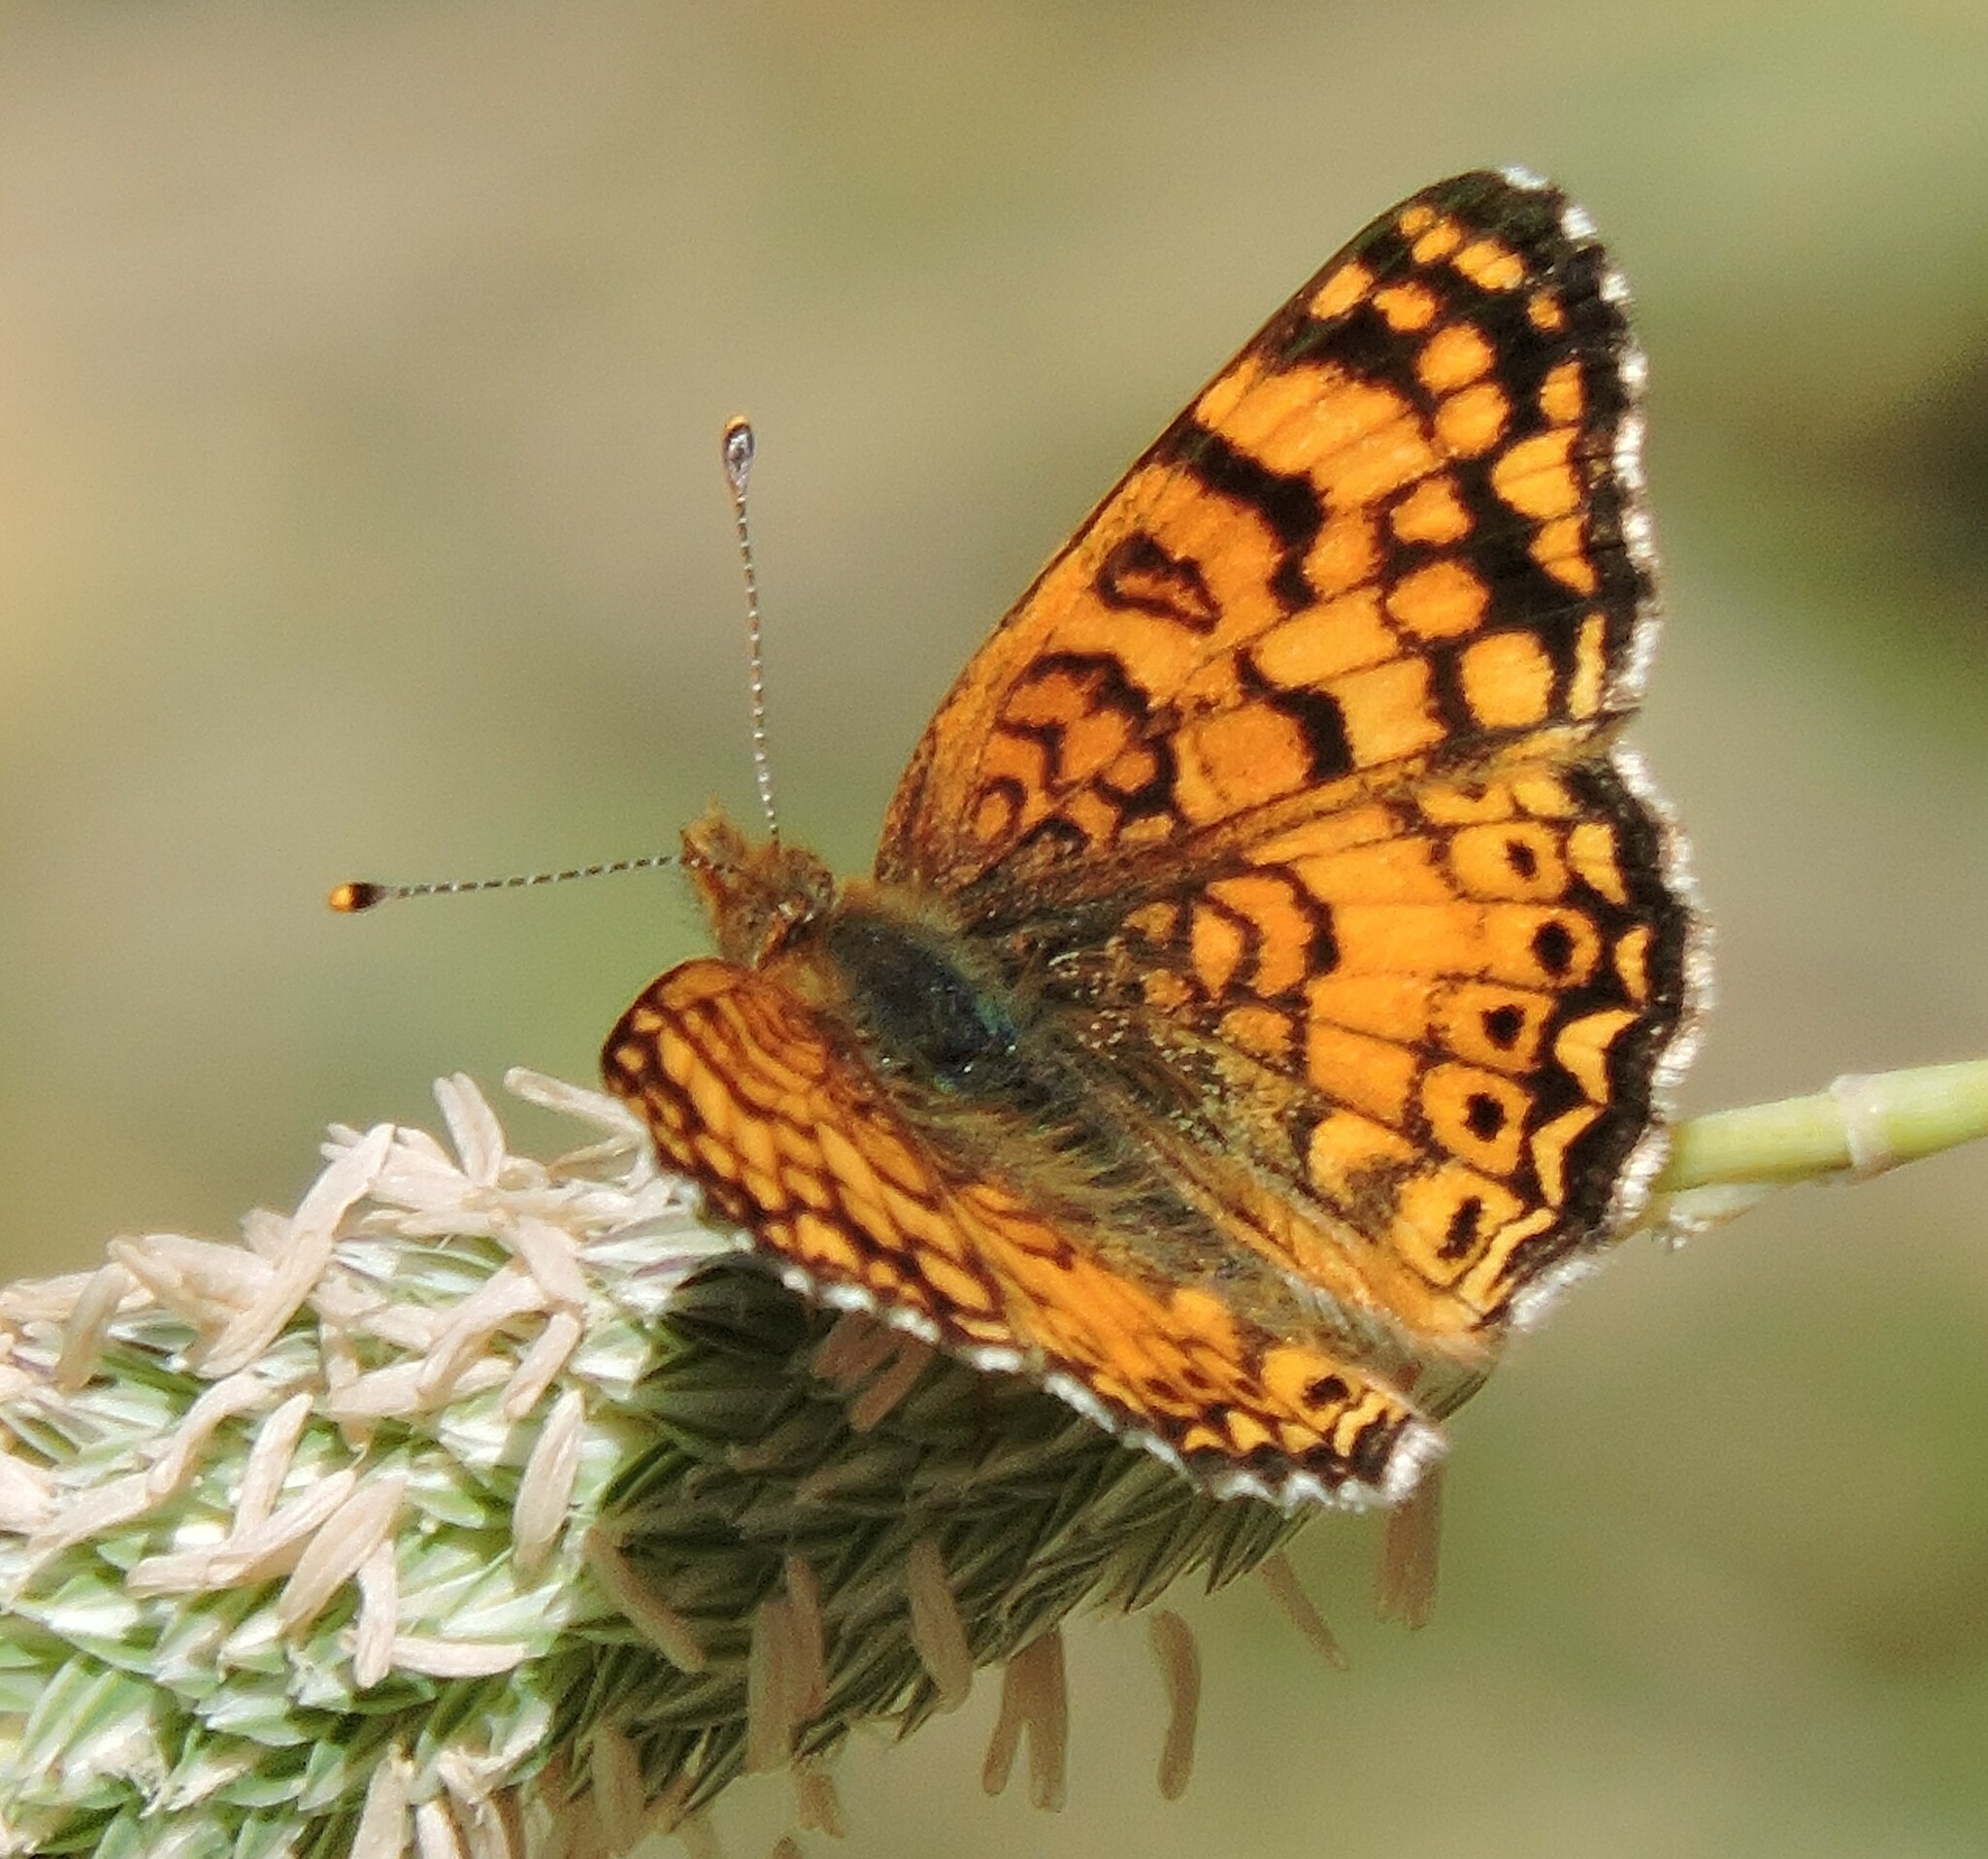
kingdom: Animalia
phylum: Arthropoda
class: Insecta
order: Lepidoptera
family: Nymphalidae
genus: Eresia
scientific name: Eresia aveyrona
